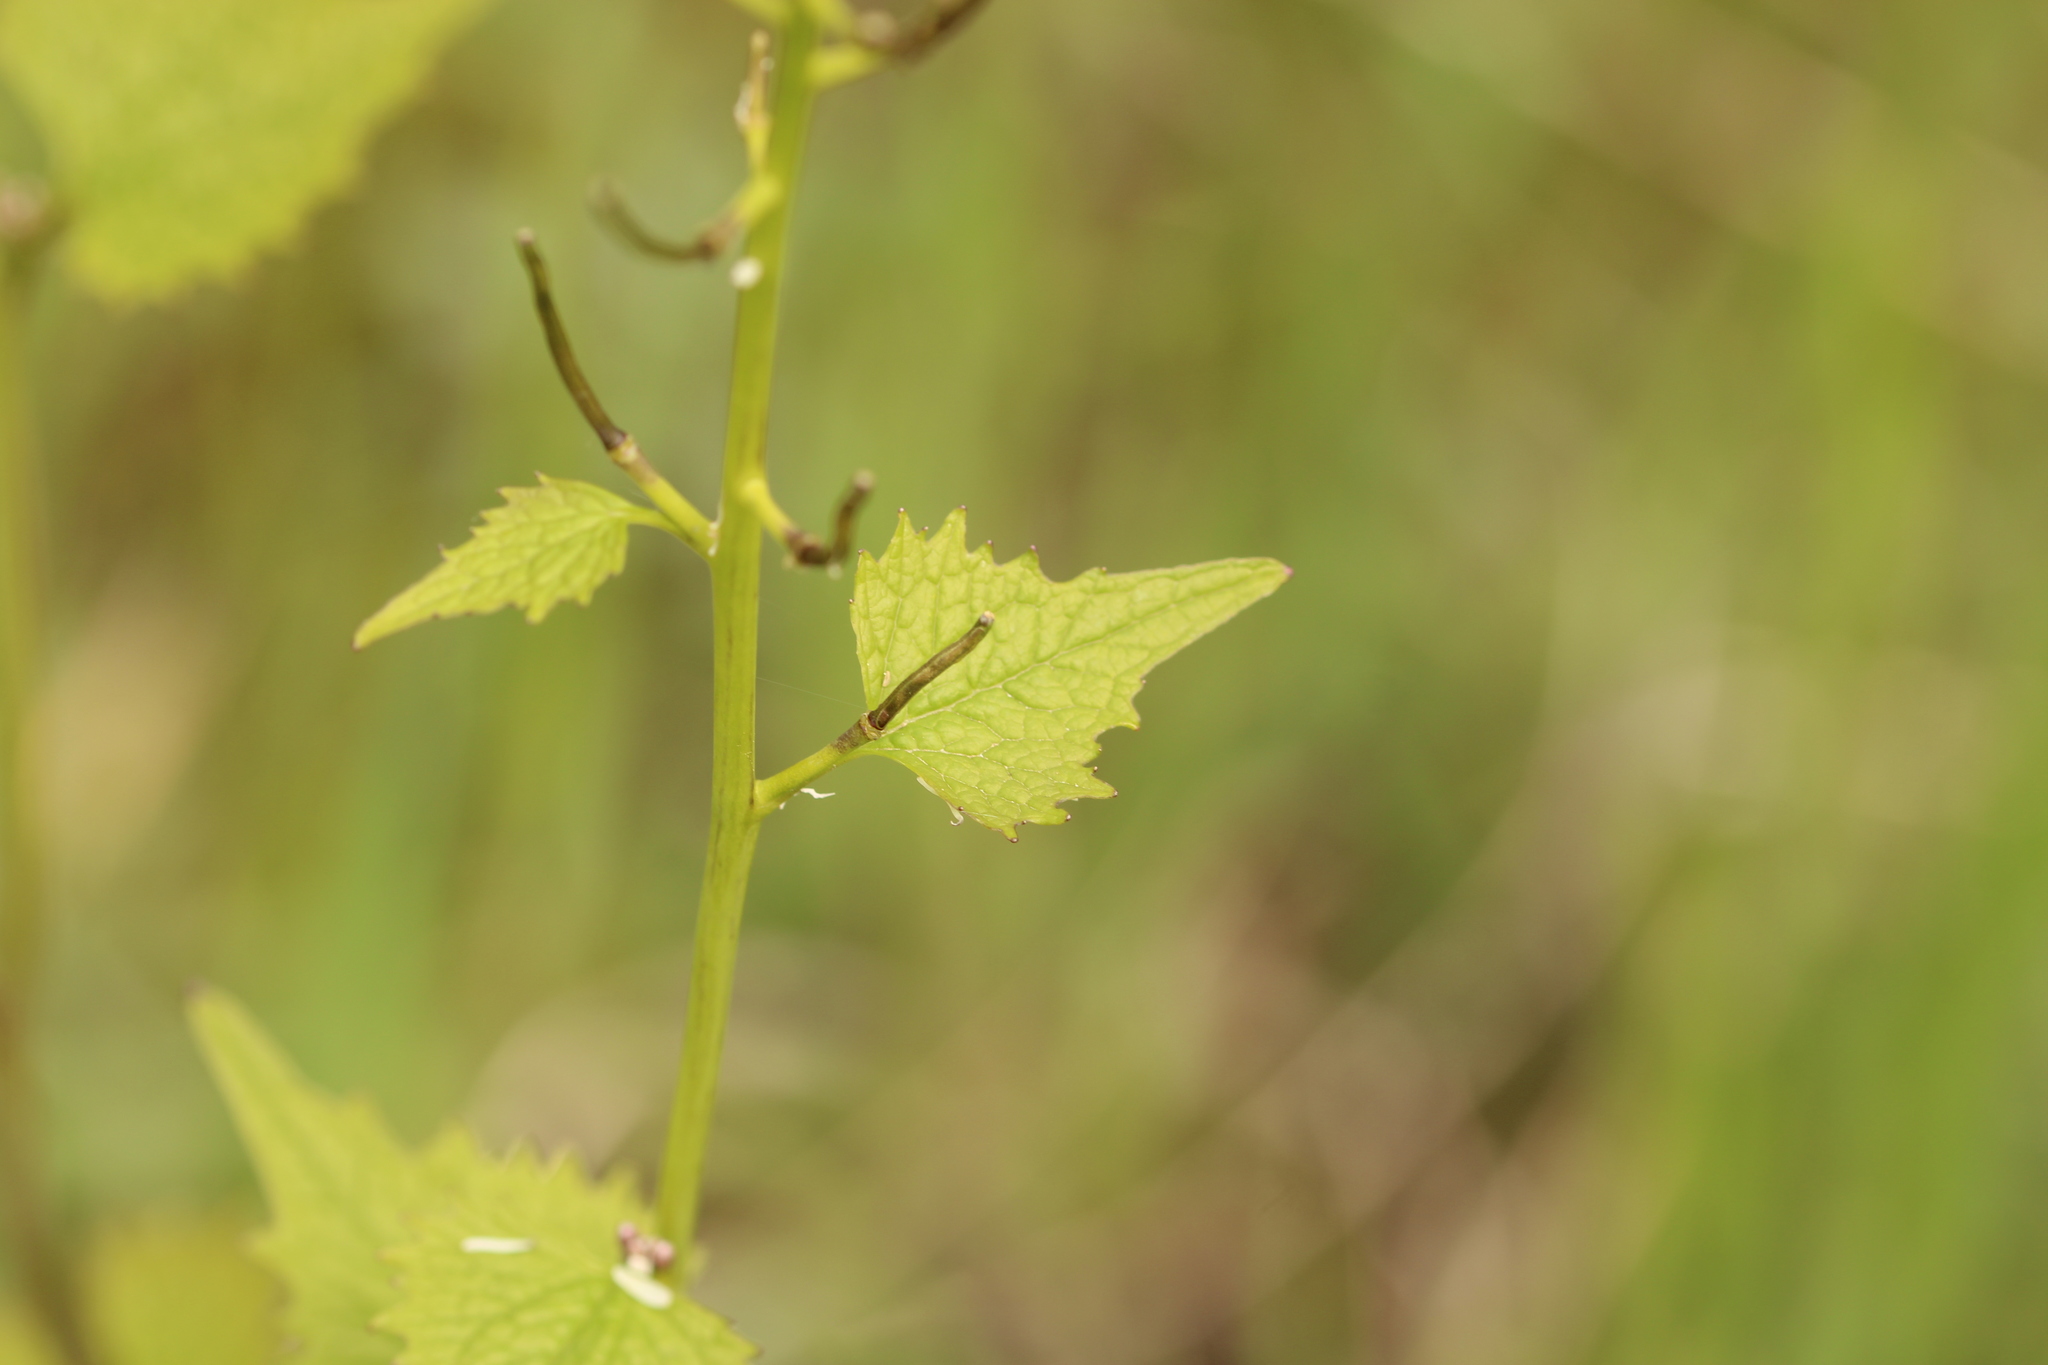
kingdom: Plantae
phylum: Tracheophyta
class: Magnoliopsida
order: Brassicales
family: Brassicaceae
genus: Alliaria
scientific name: Alliaria petiolata
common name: Garlic mustard
